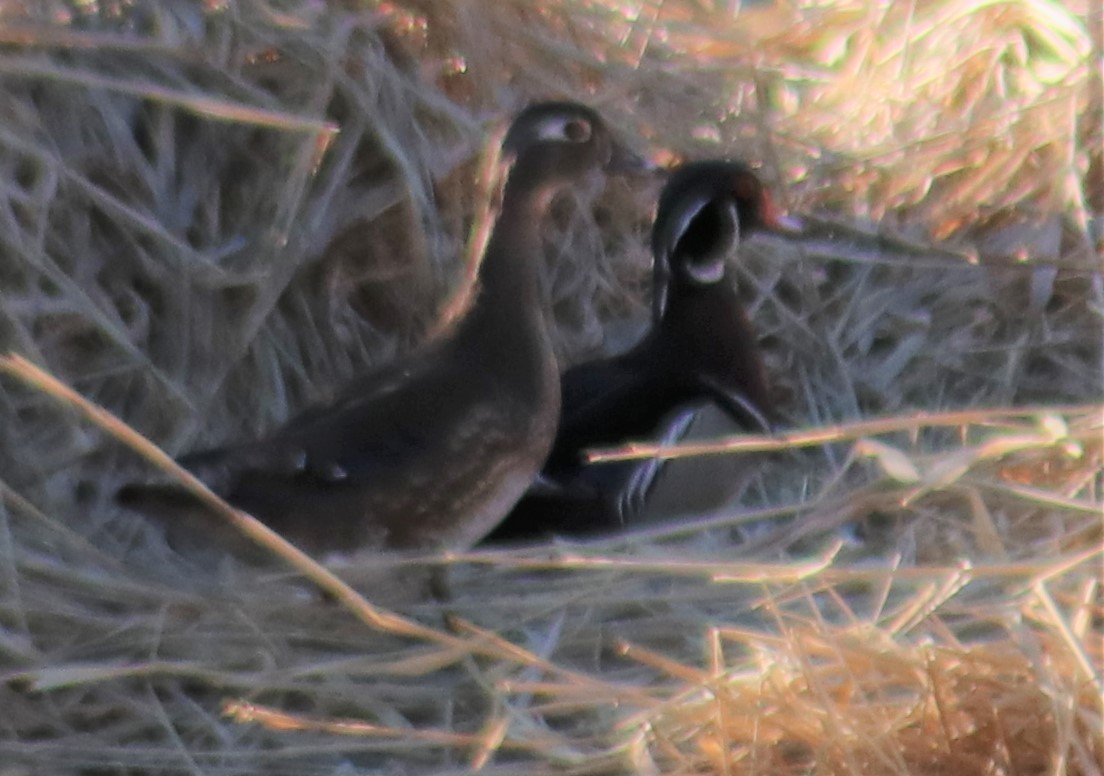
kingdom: Animalia
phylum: Chordata
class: Aves
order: Anseriformes
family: Anatidae
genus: Aix
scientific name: Aix sponsa
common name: Wood duck
